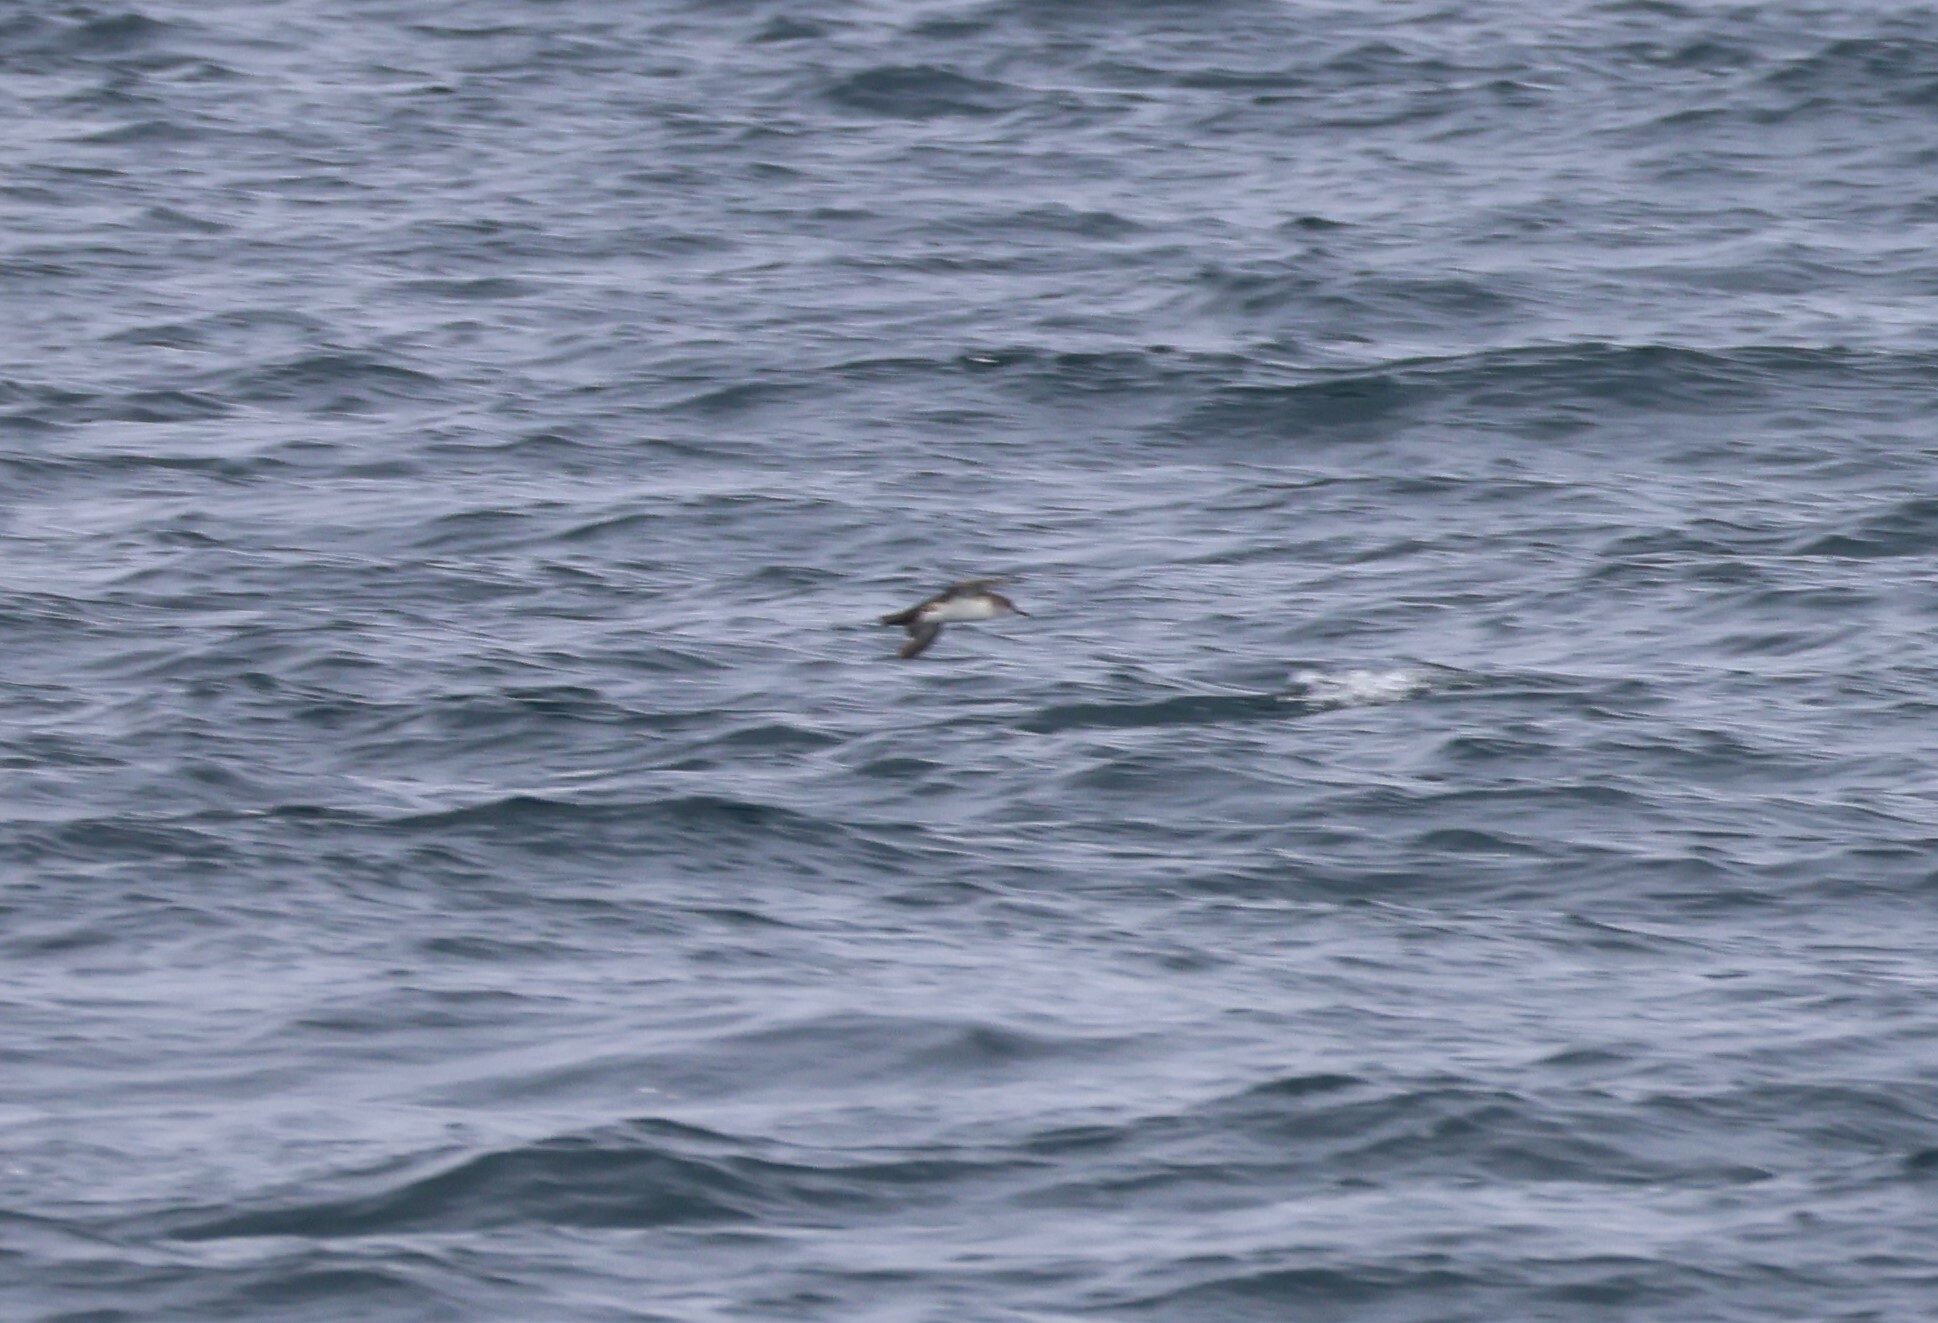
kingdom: Animalia
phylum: Chordata
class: Aves
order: Procellariiformes
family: Procellariidae
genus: Puffinus
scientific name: Puffinus opisthomelas
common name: Black-vented shearwater
